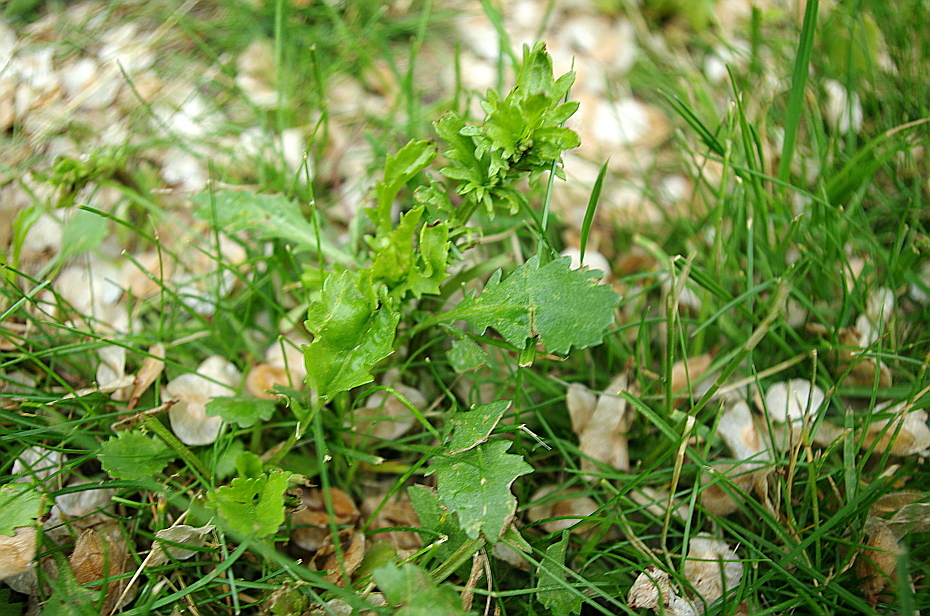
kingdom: Plantae
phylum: Tracheophyta
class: Magnoliopsida
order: Asterales
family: Asteraceae
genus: Leucanthemum
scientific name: Leucanthemum vulgare
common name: Oxeye daisy
